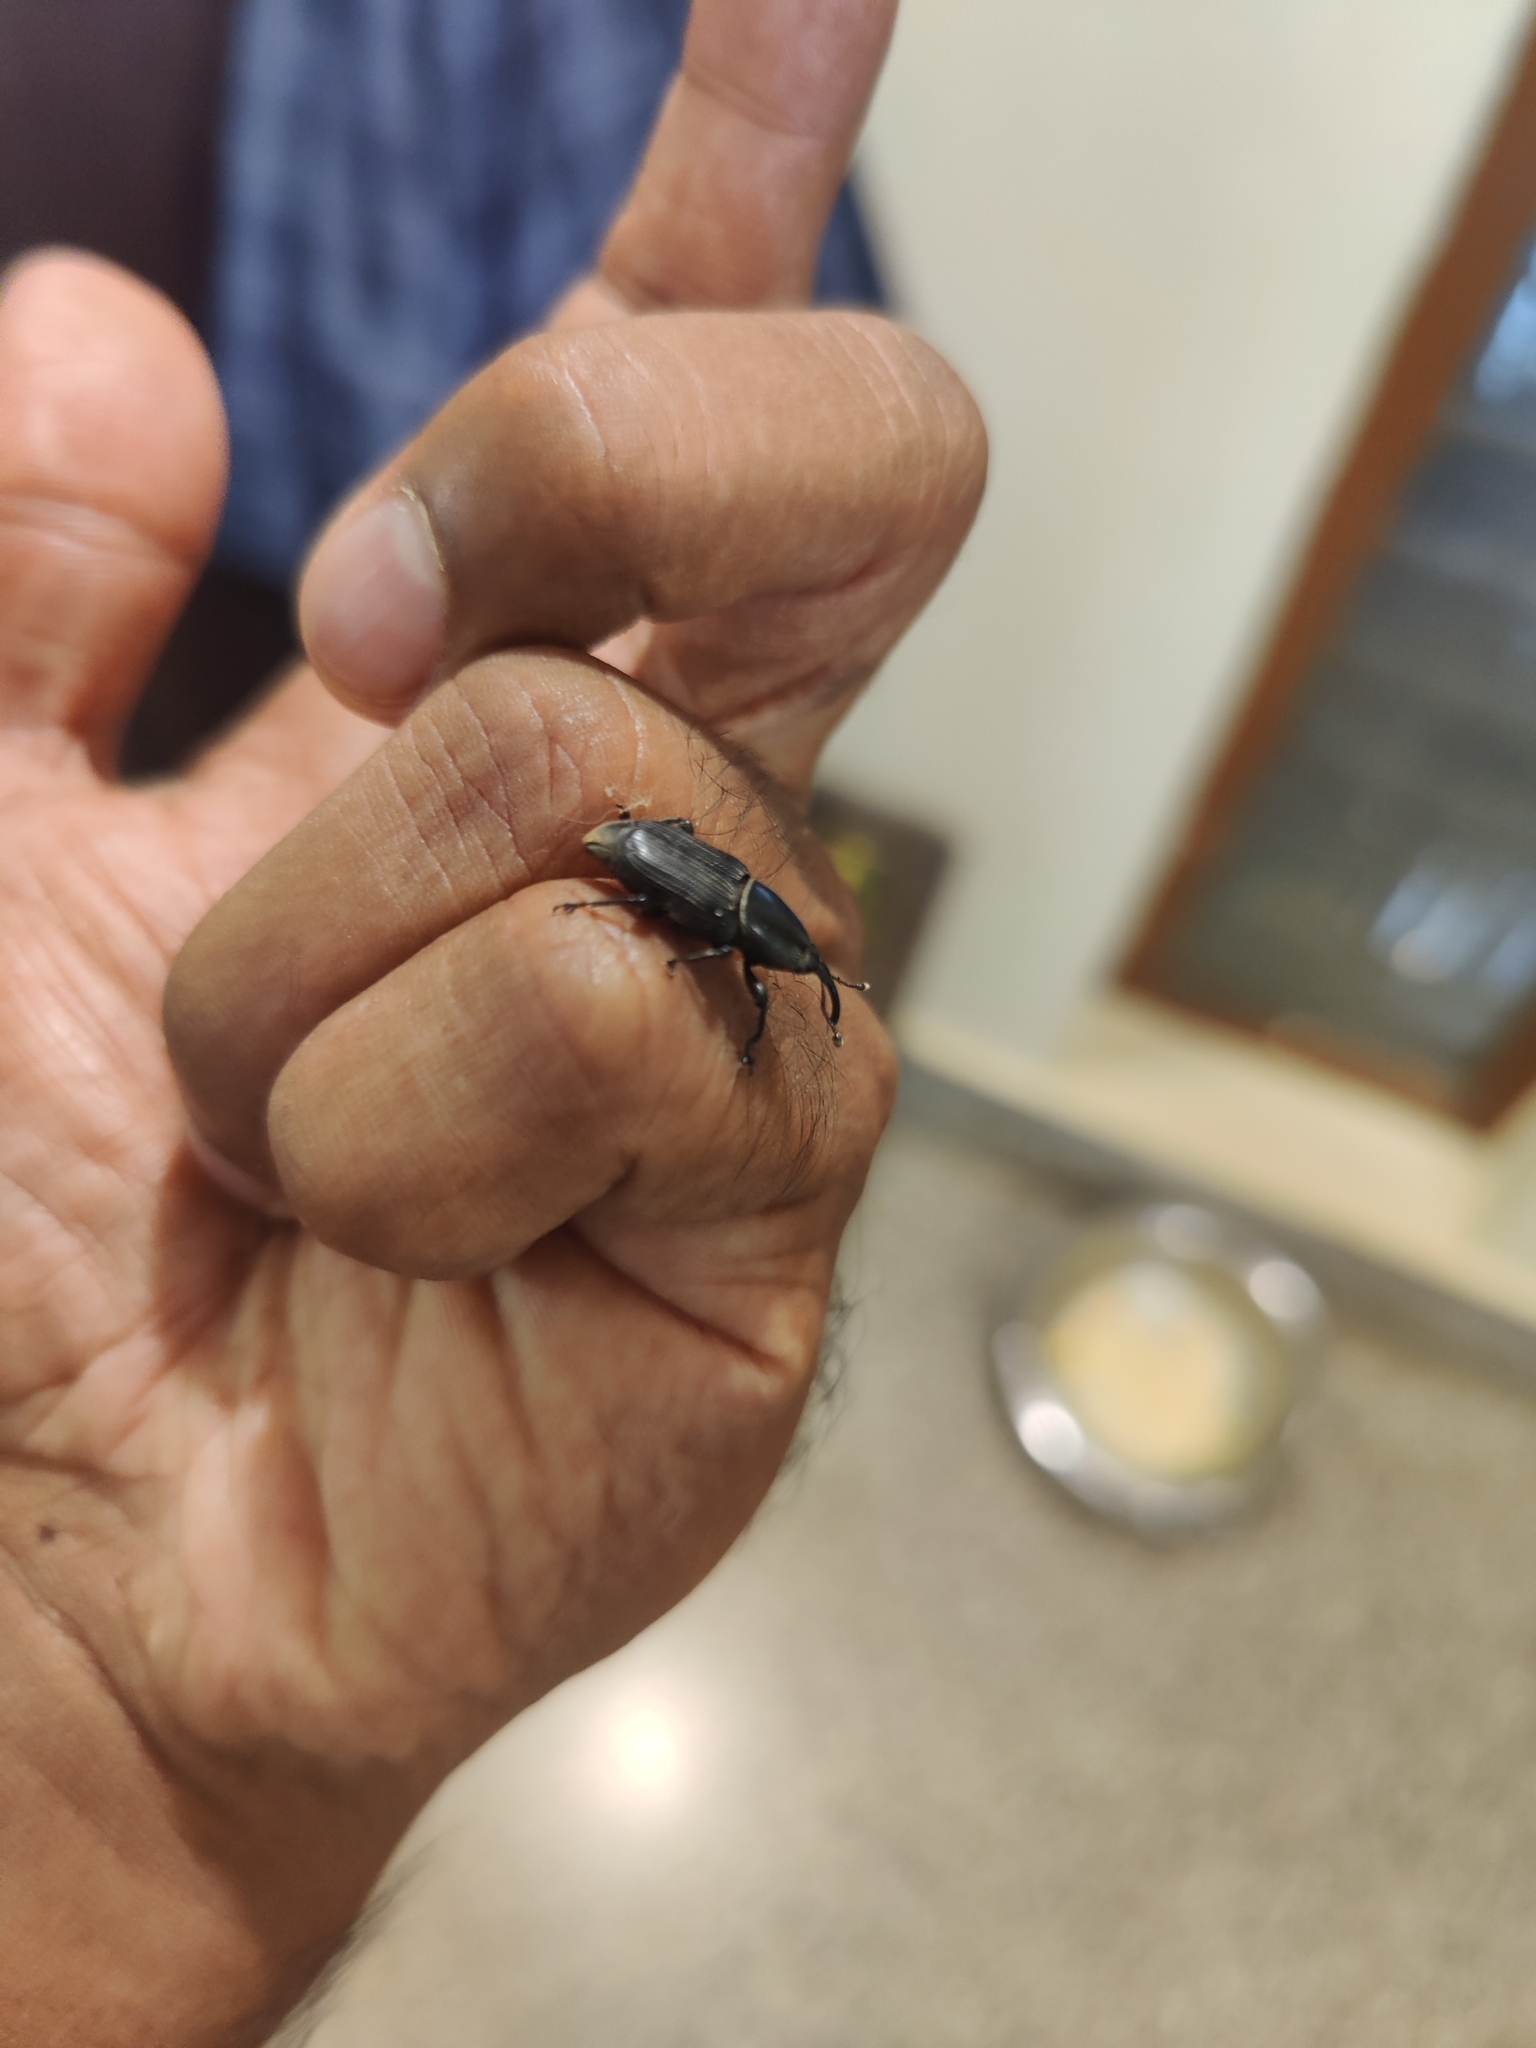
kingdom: Animalia
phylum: Arthropoda
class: Insecta
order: Coleoptera
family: Dryophthoridae
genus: Odoiporus
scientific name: Odoiporus longicollis
